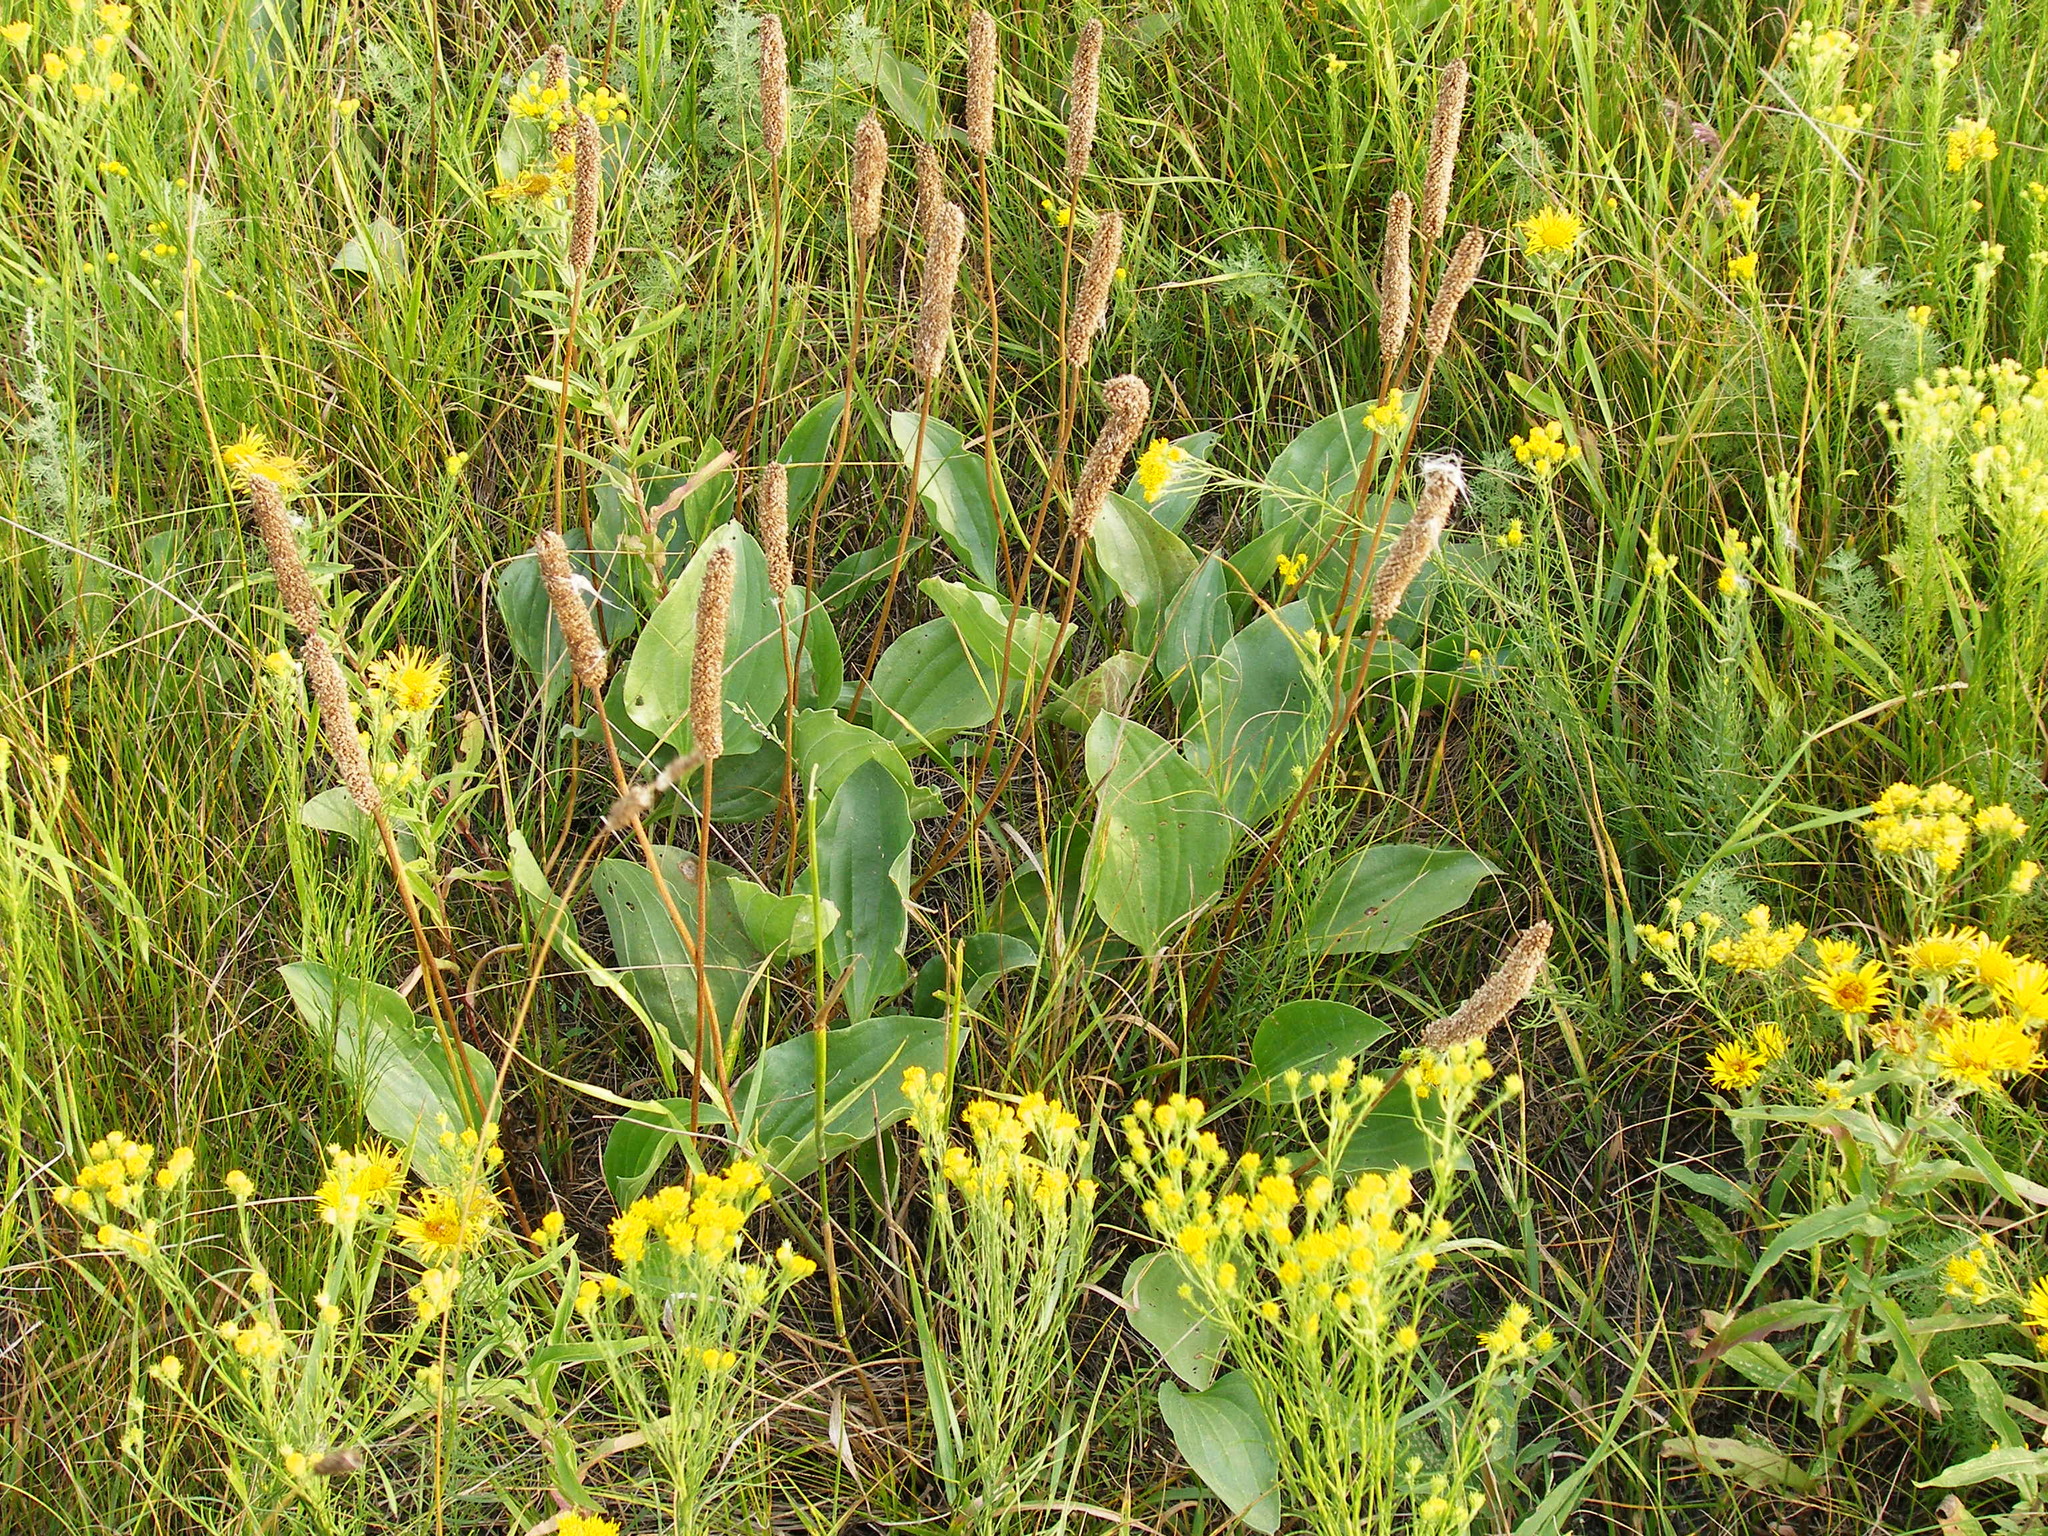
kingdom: Plantae
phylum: Tracheophyta
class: Magnoliopsida
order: Lamiales
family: Plantaginaceae
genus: Plantago
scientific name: Plantago maxima
